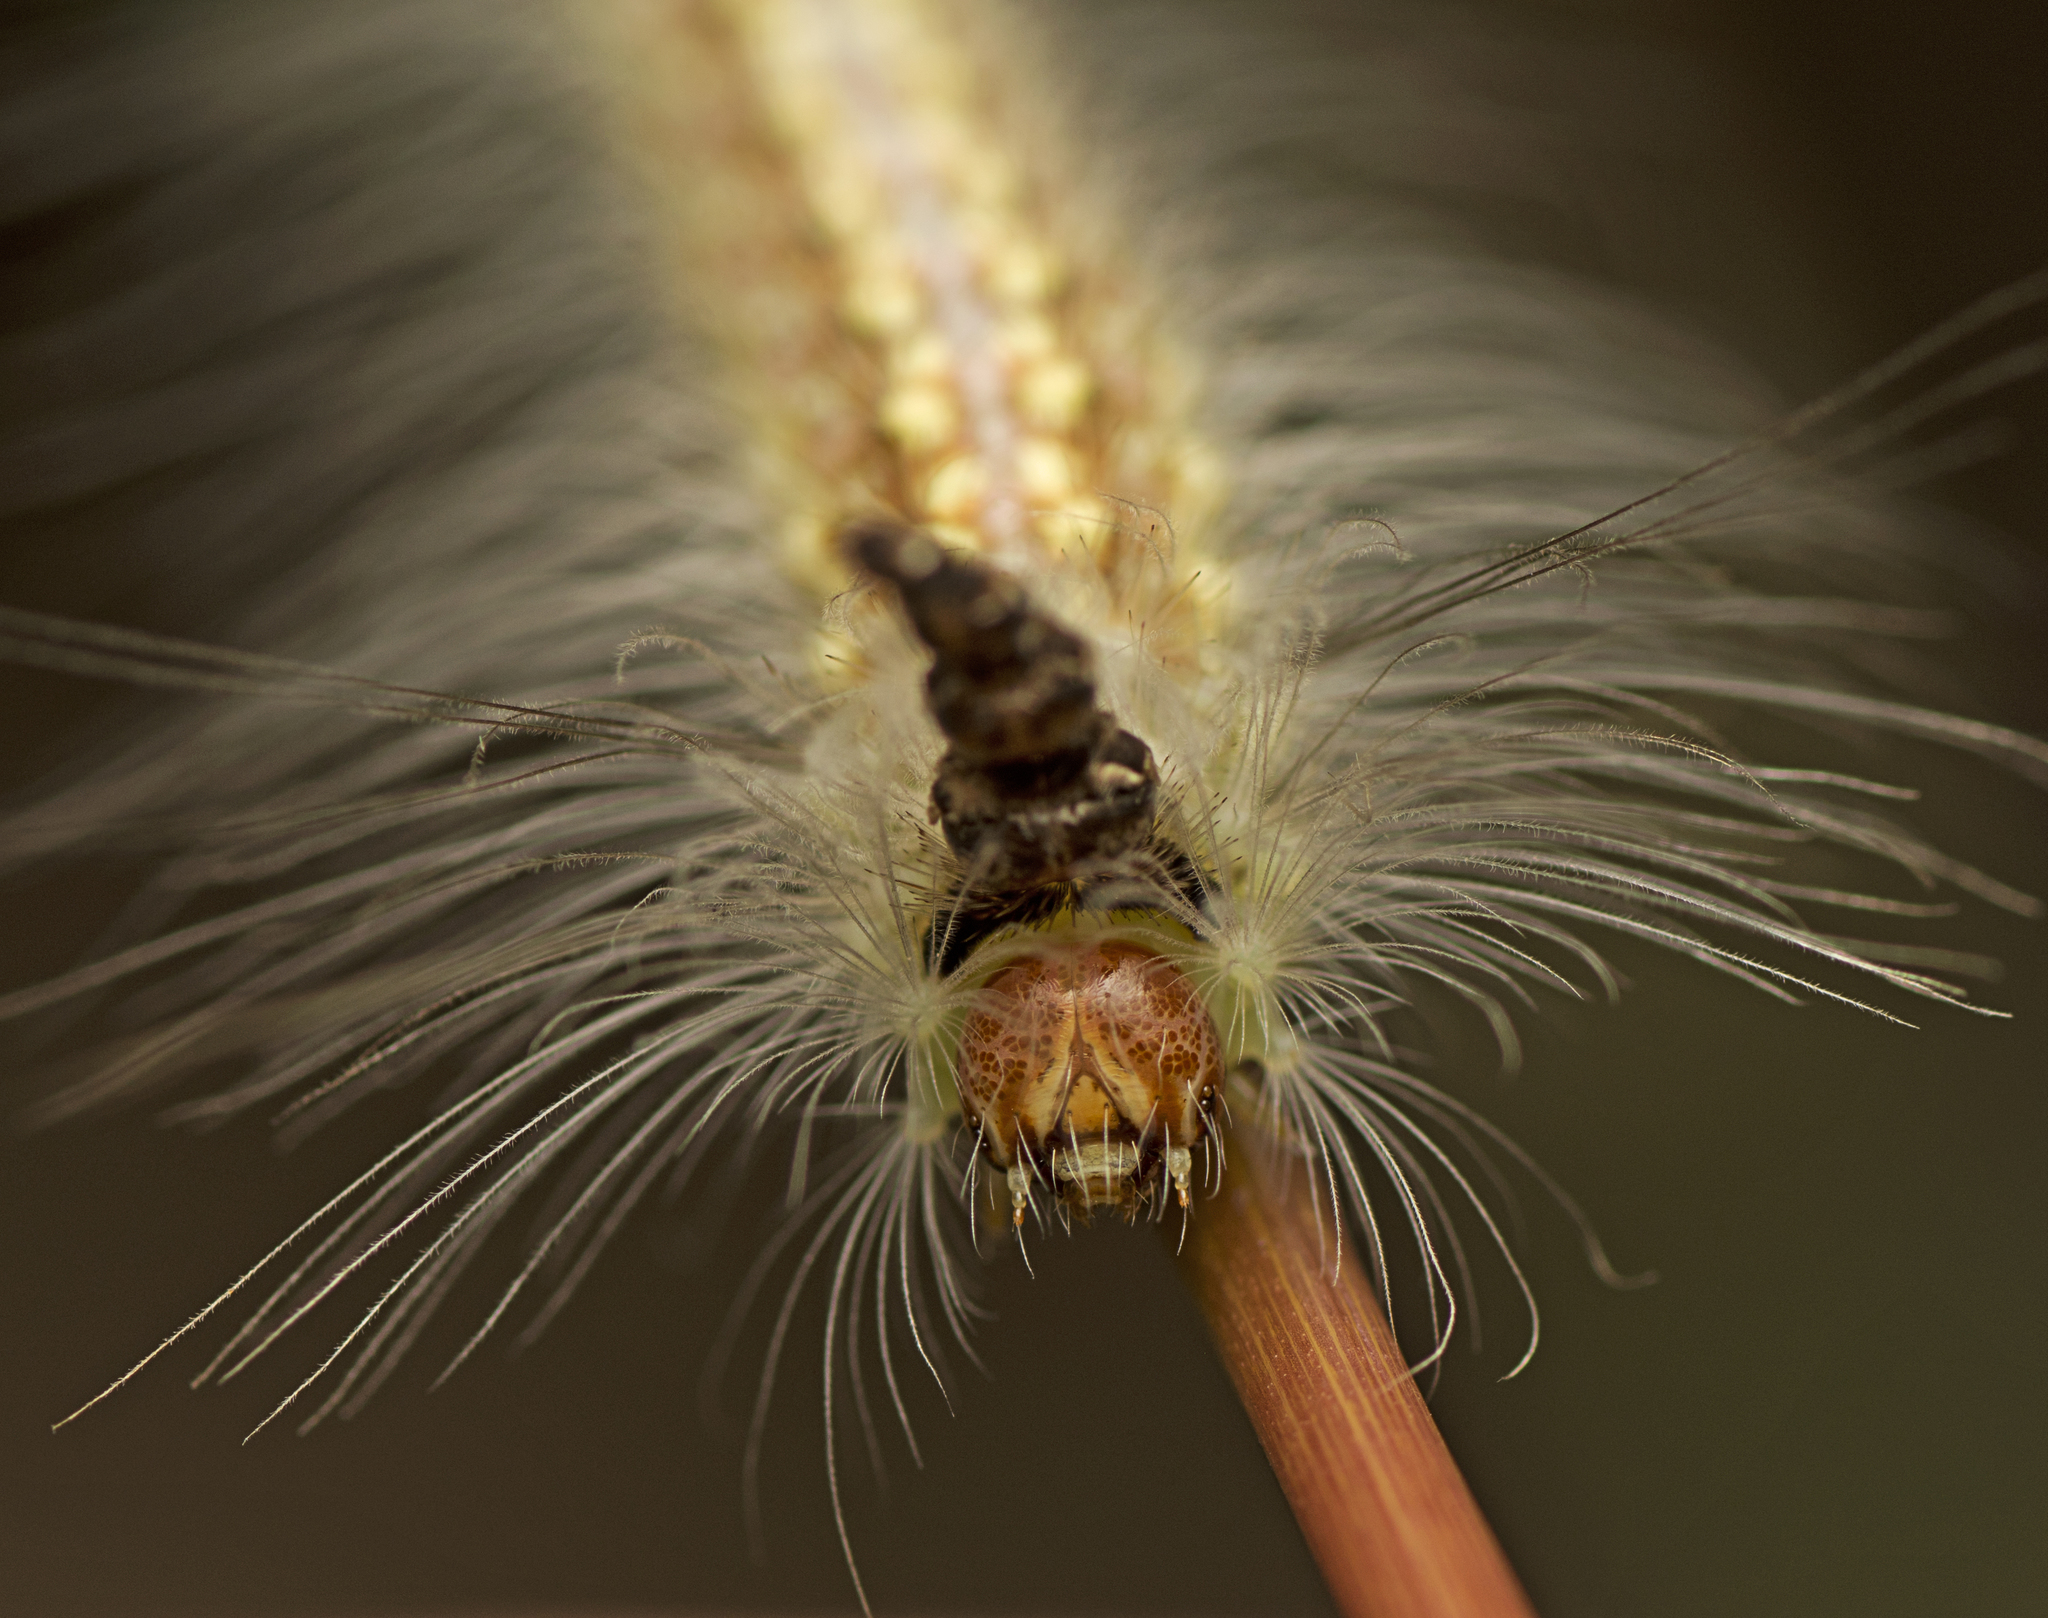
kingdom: Animalia
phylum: Arthropoda
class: Insecta
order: Lepidoptera
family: Nolidae
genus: Uraba
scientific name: Uraba lugens
